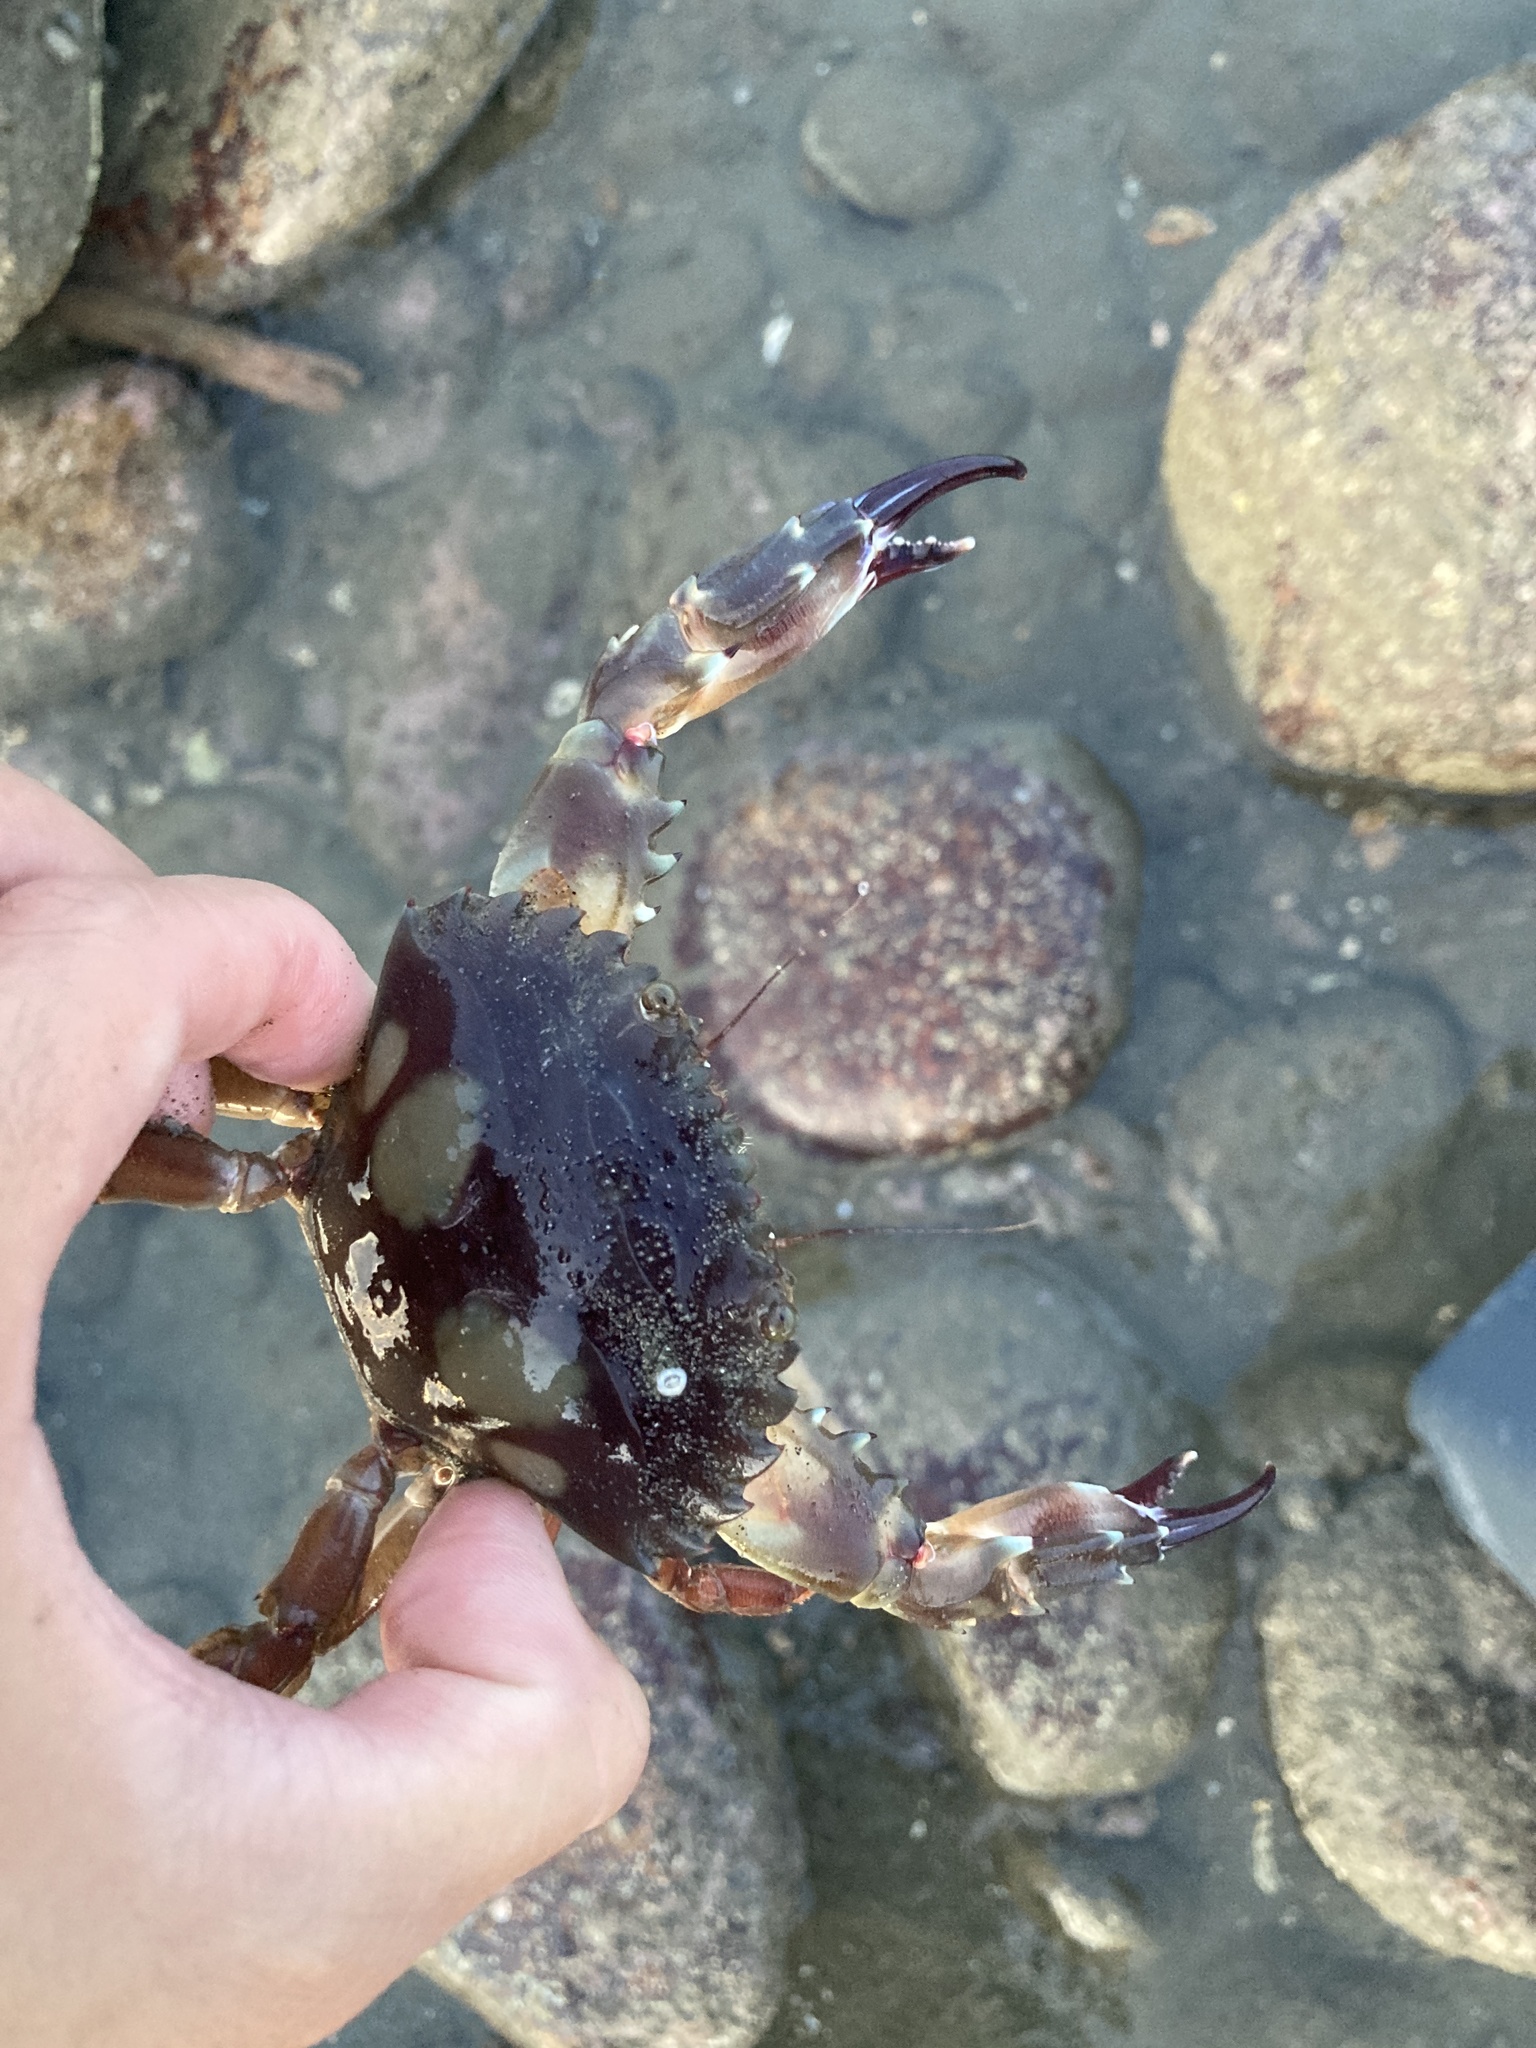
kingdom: Animalia
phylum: Arthropoda
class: Malacostraca
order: Decapoda
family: Portunidae
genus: Charybdis
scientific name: Charybdis lucifer
